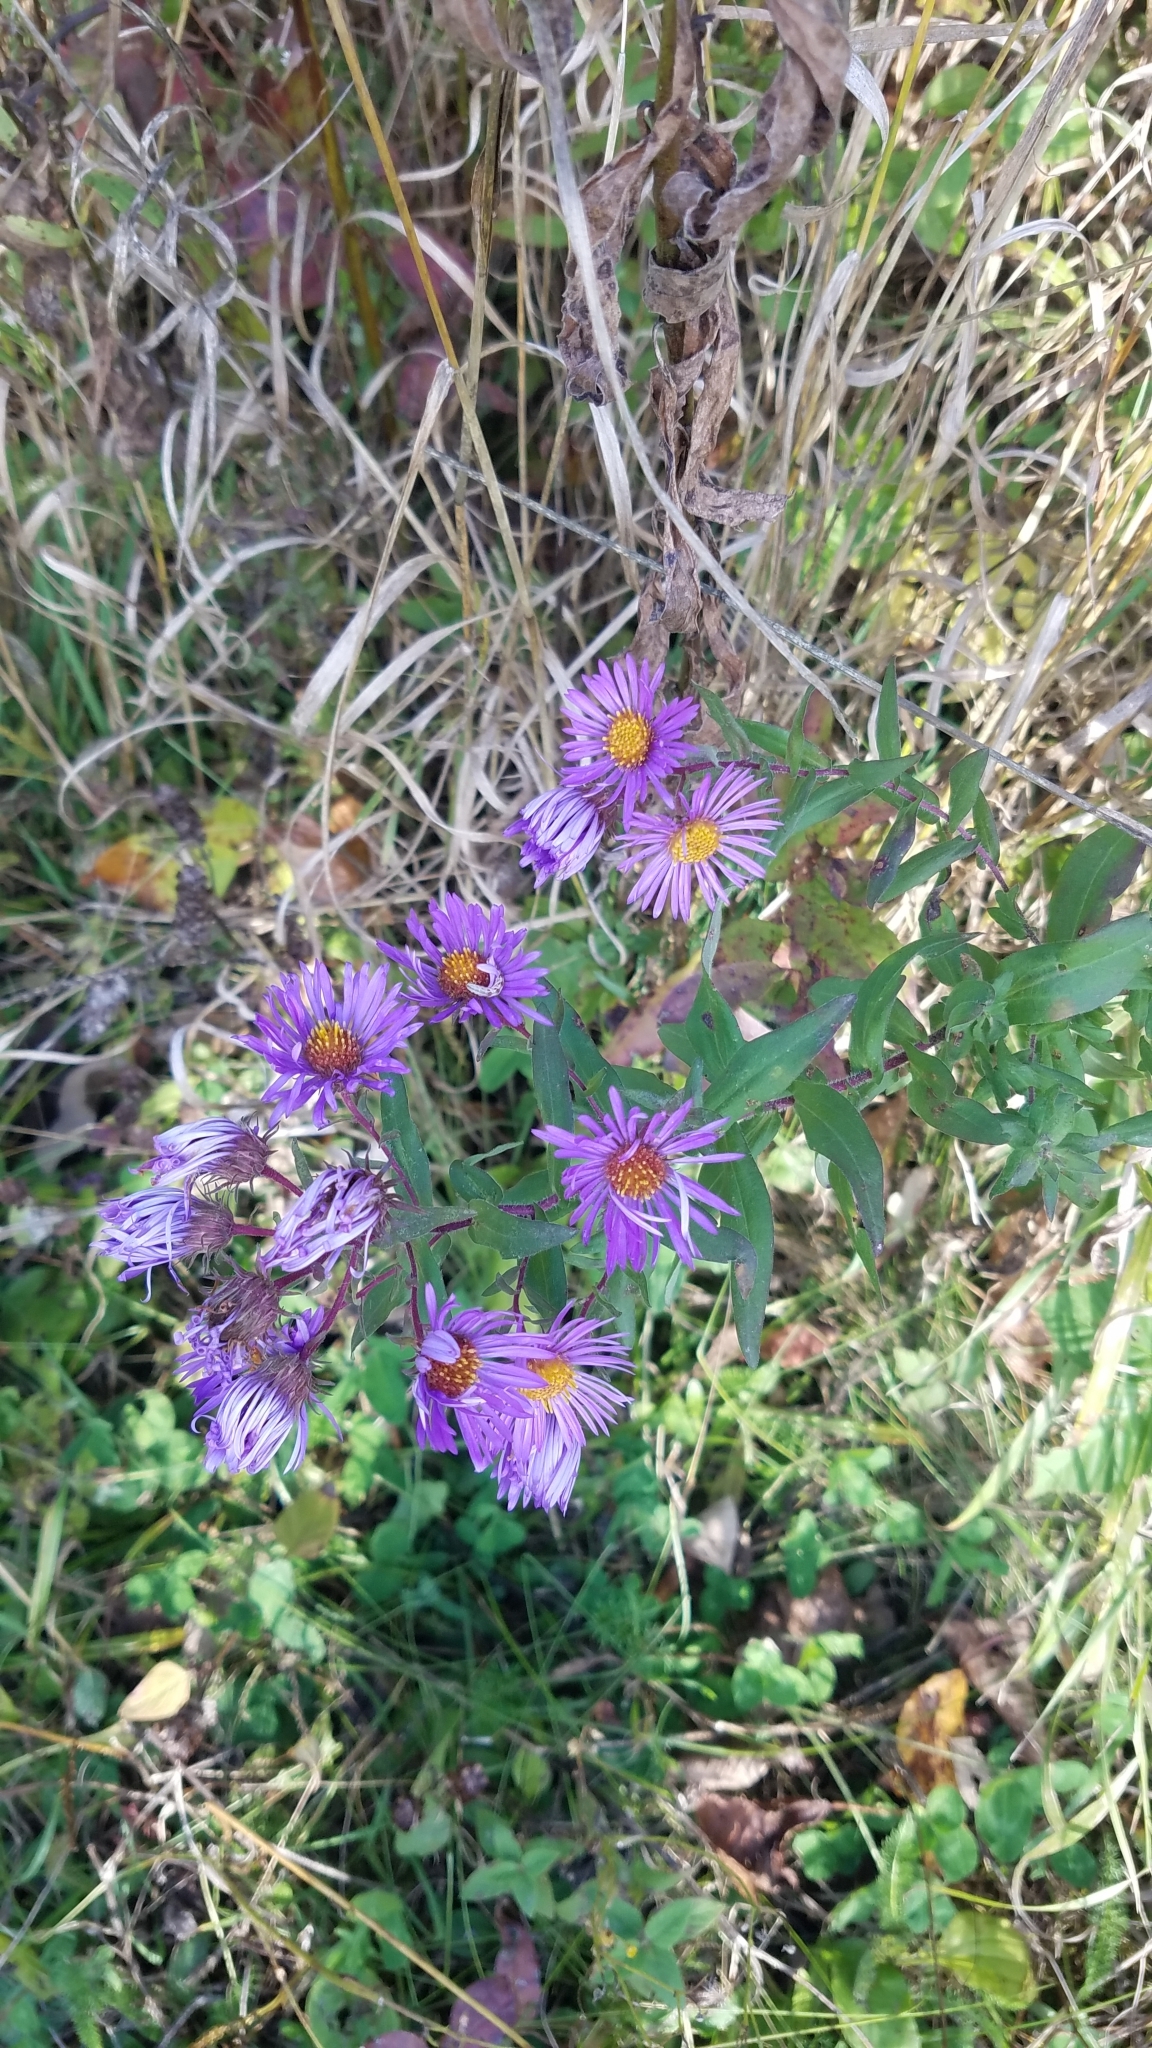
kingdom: Plantae
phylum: Tracheophyta
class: Magnoliopsida
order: Asterales
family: Asteraceae
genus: Symphyotrichum
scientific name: Symphyotrichum novae-angliae
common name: Michaelmas daisy
